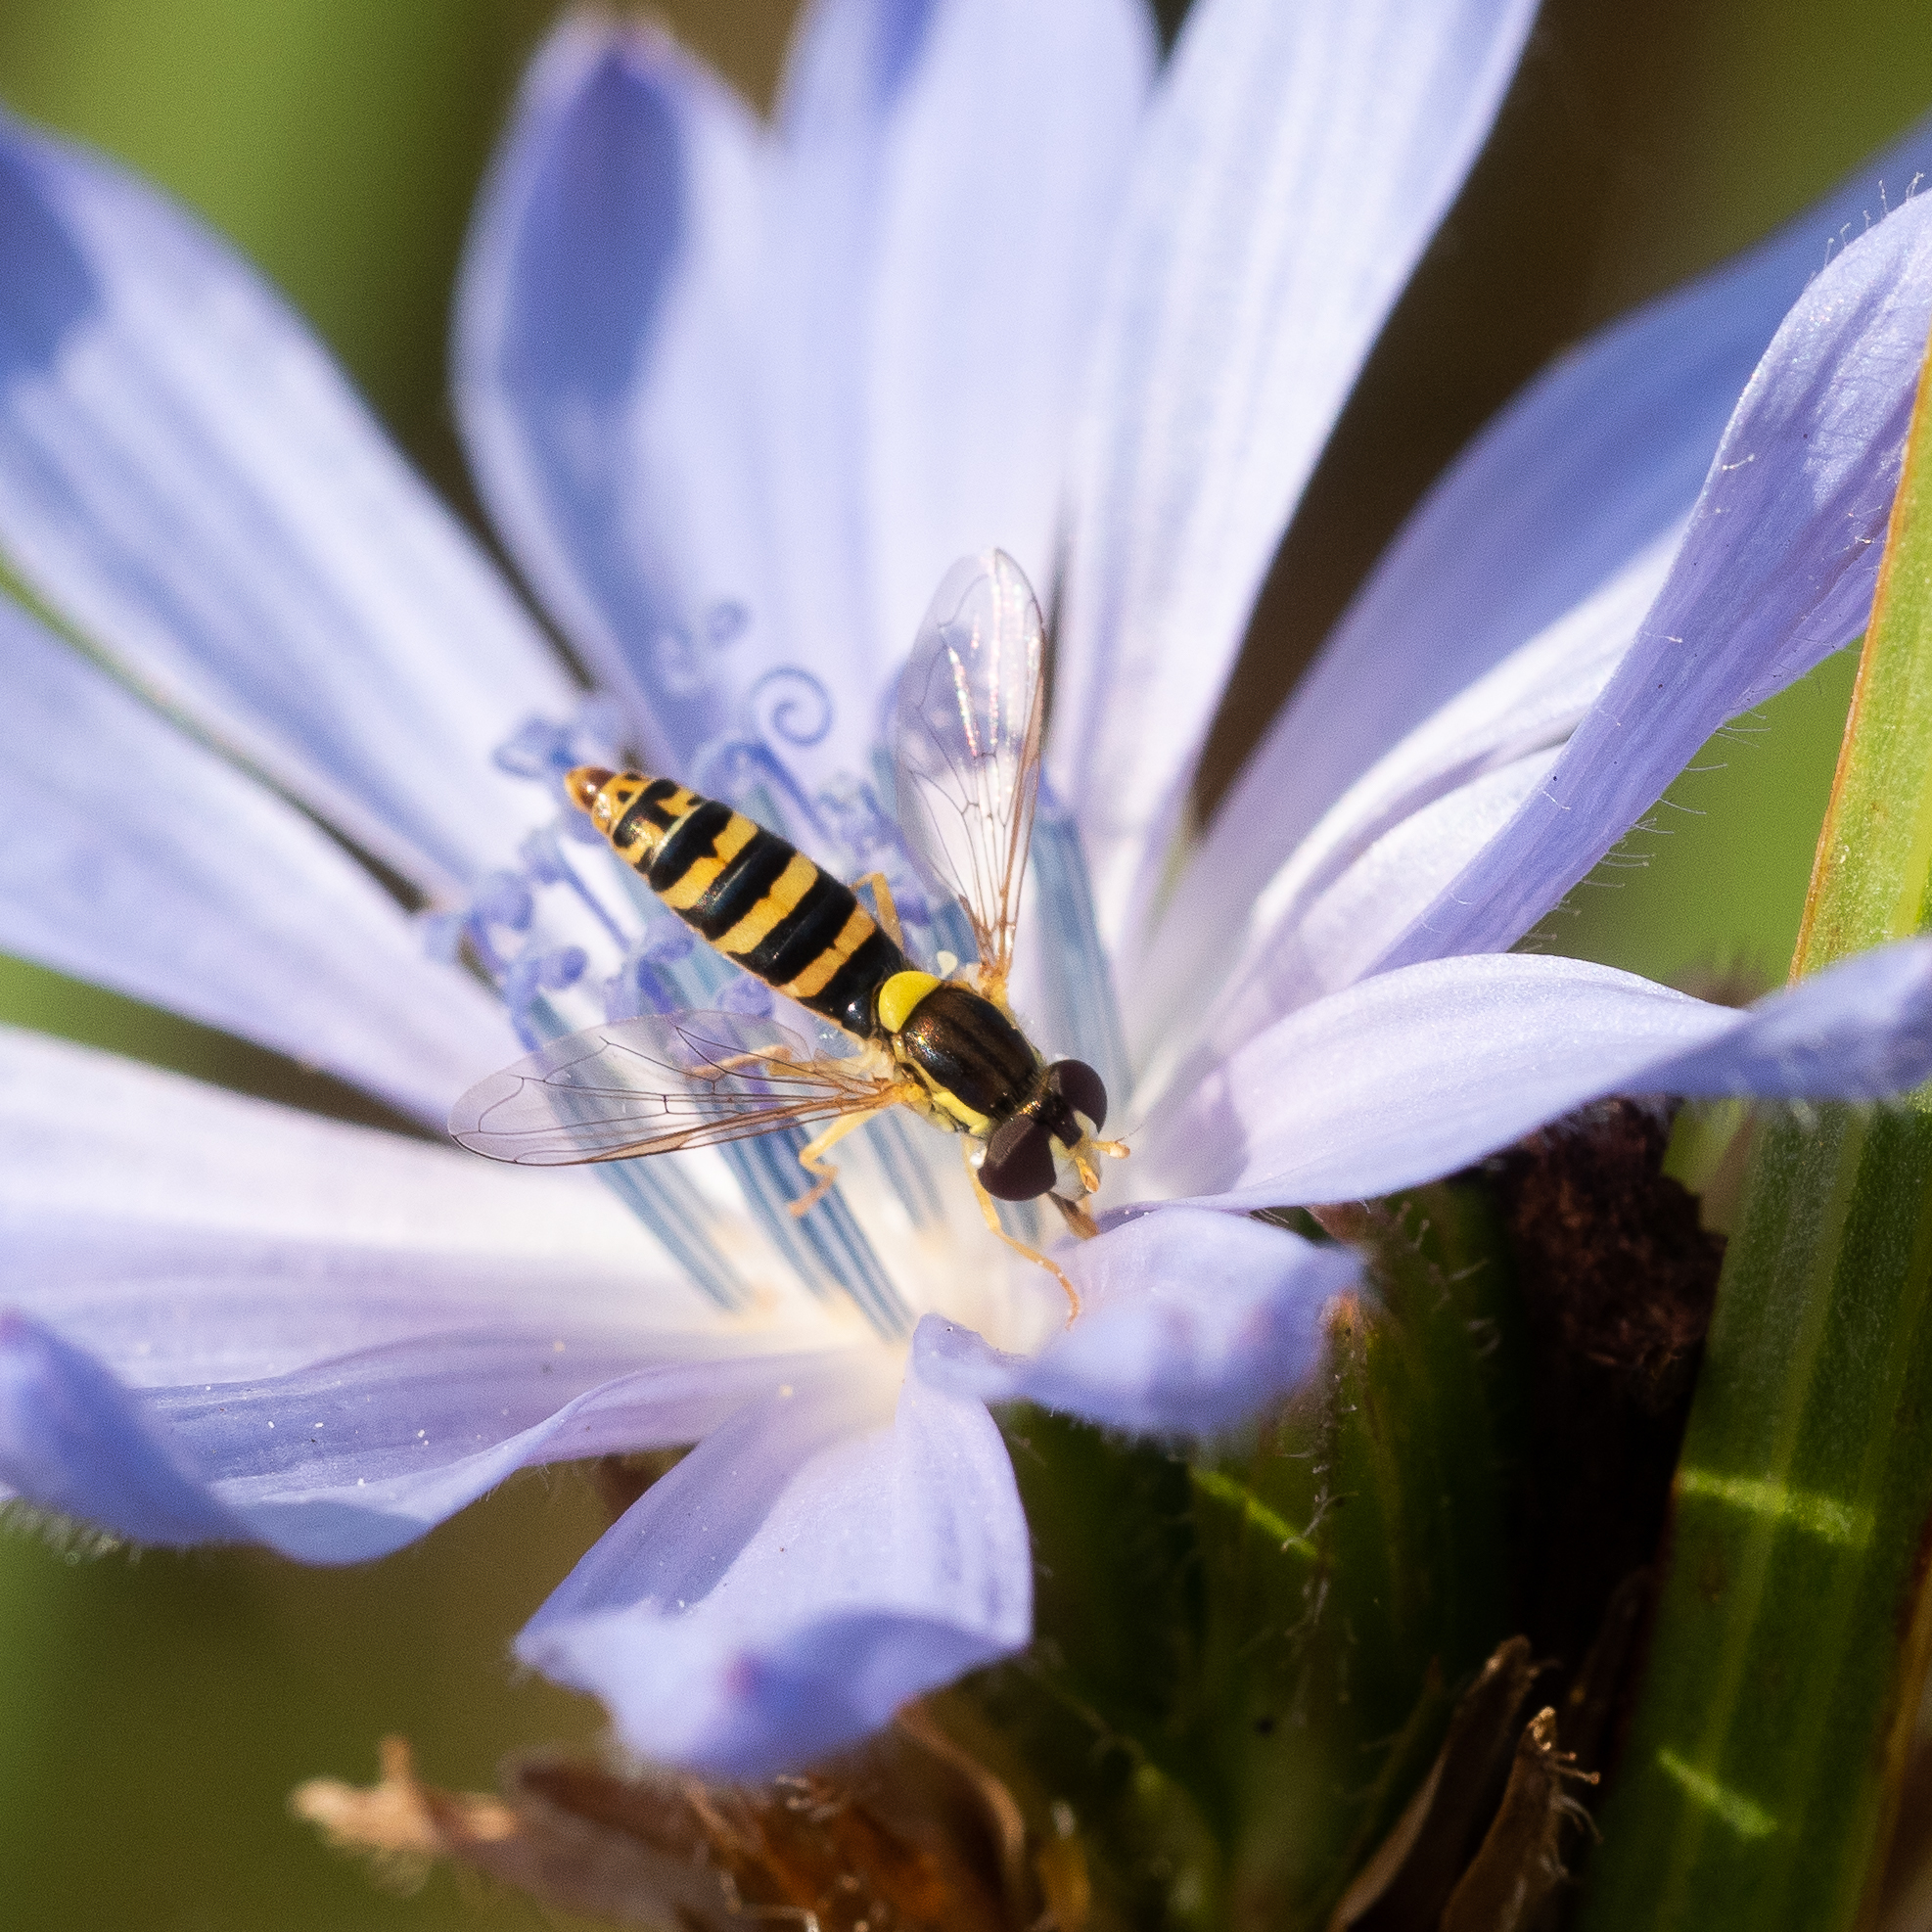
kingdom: Animalia
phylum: Arthropoda
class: Insecta
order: Diptera
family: Syrphidae
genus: Sphaerophoria
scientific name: Sphaerophoria scripta
